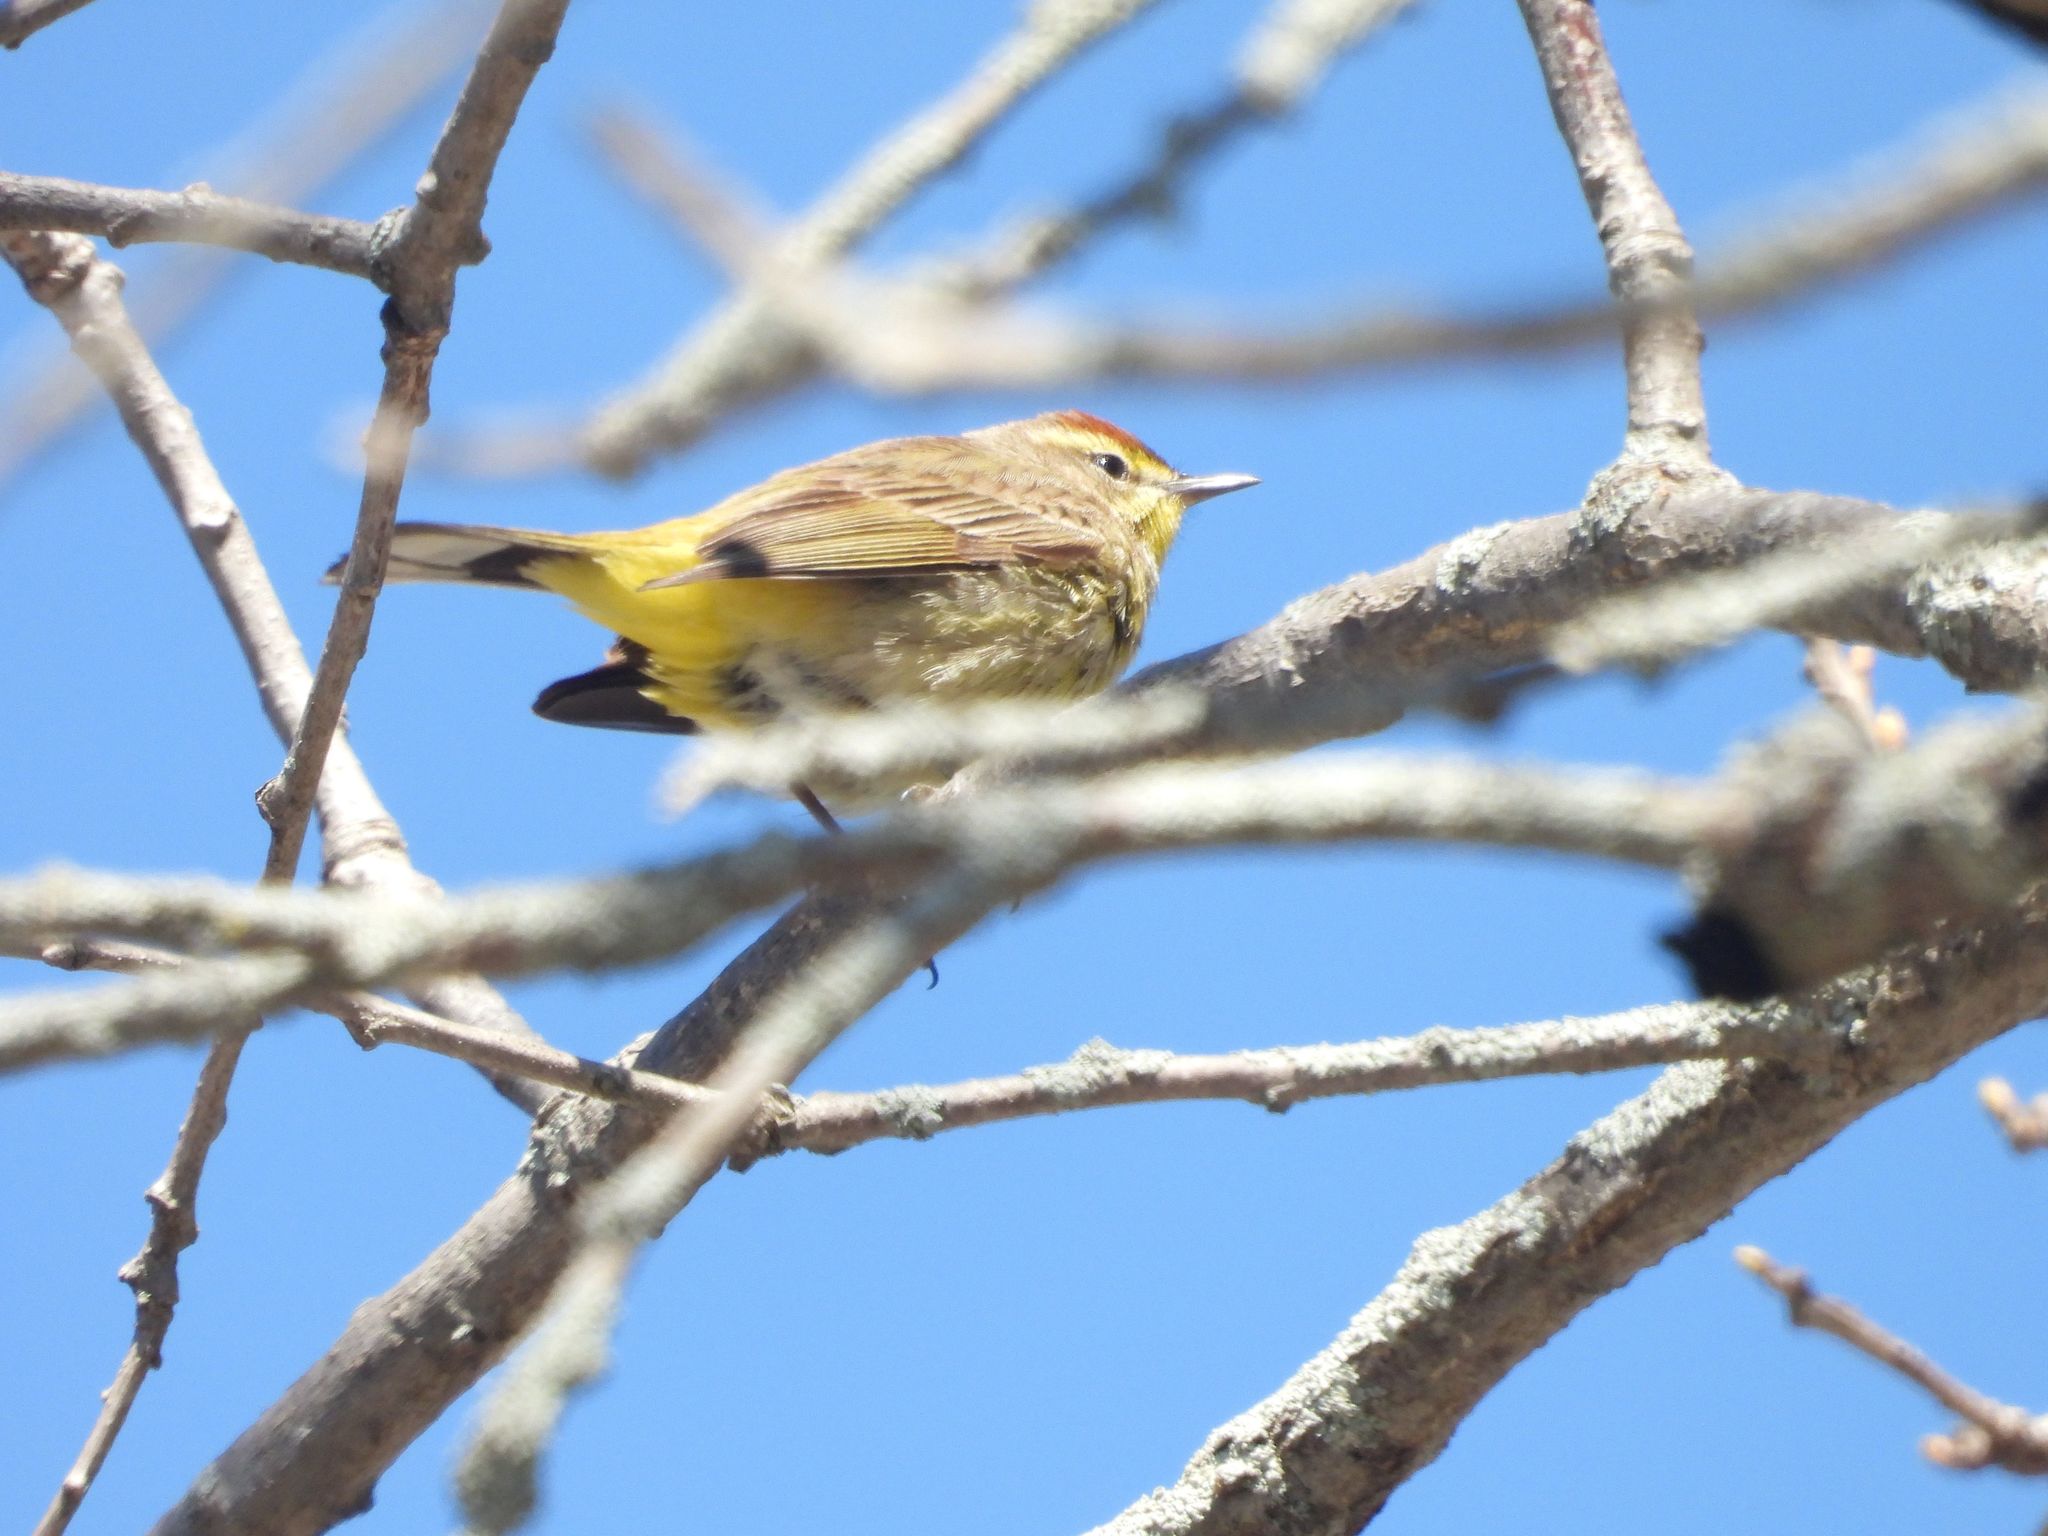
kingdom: Animalia
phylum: Chordata
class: Aves
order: Passeriformes
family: Parulidae
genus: Setophaga
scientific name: Setophaga palmarum
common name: Palm warbler
